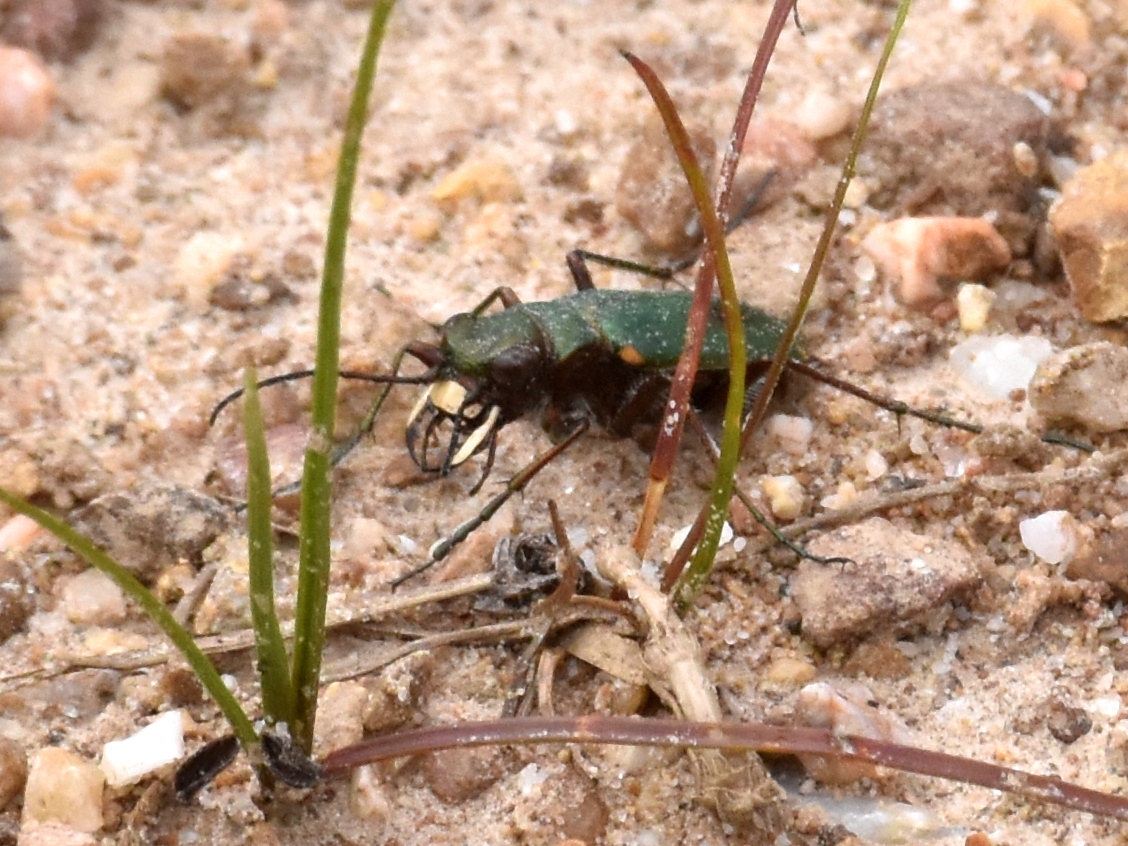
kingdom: Animalia
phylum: Arthropoda
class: Insecta
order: Coleoptera
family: Carabidae
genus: Cicindela
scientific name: Cicindela campestris
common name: Common tiger beetle
